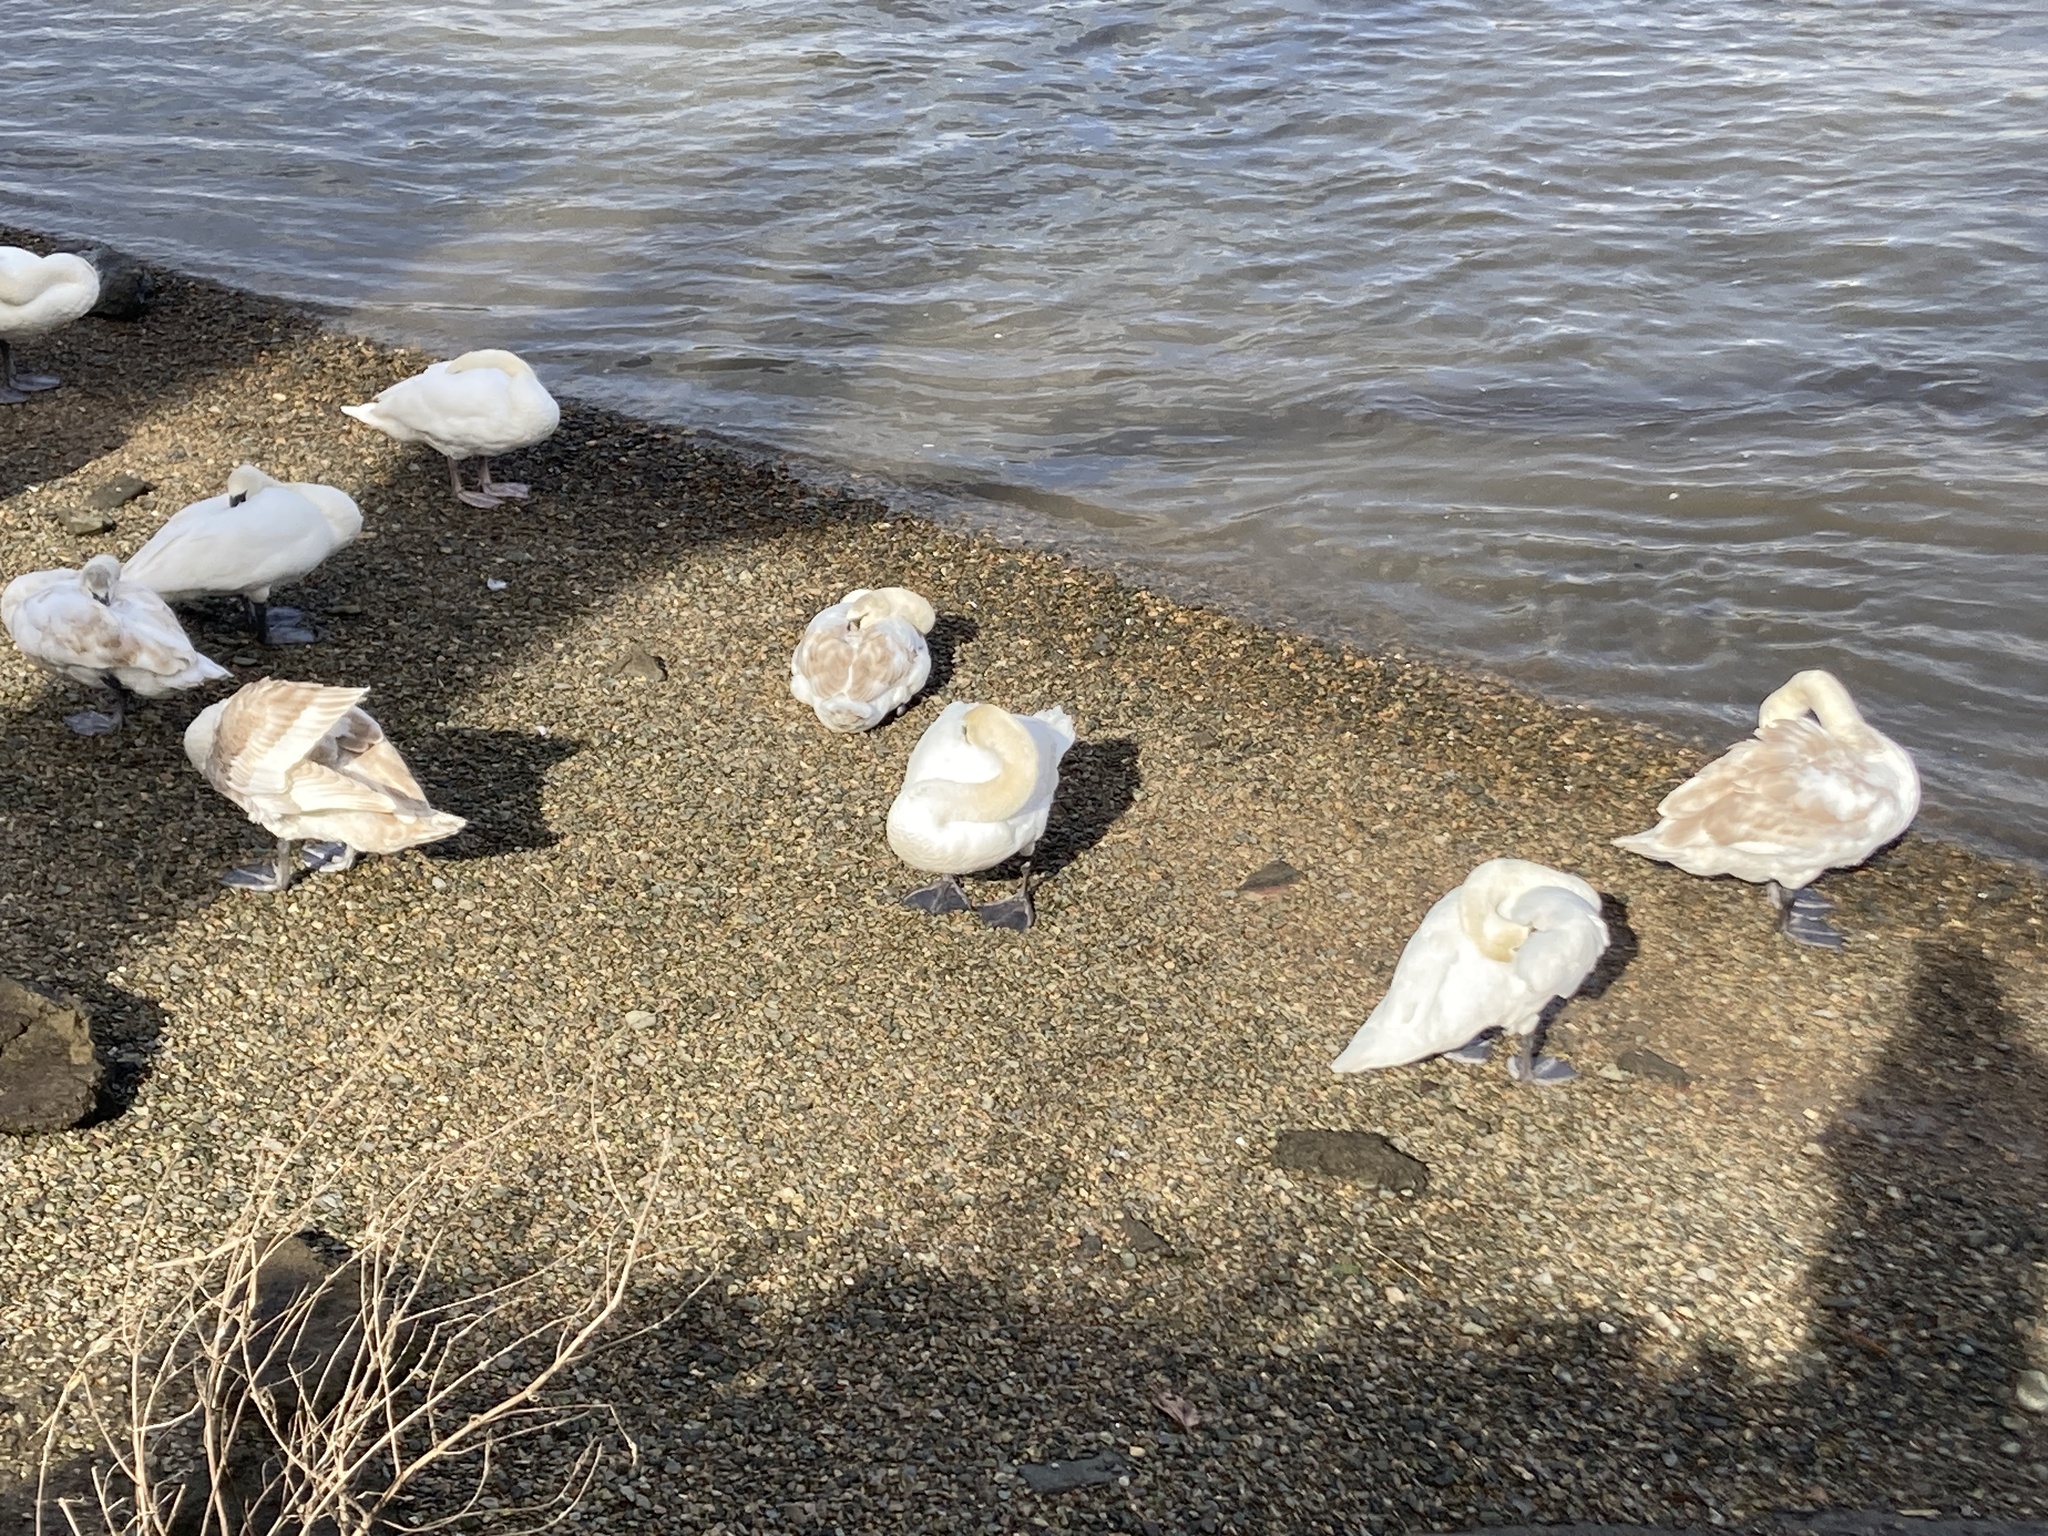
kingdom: Animalia
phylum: Chordata
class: Aves
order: Anseriformes
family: Anatidae
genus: Cygnus
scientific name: Cygnus olor
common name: Mute swan
